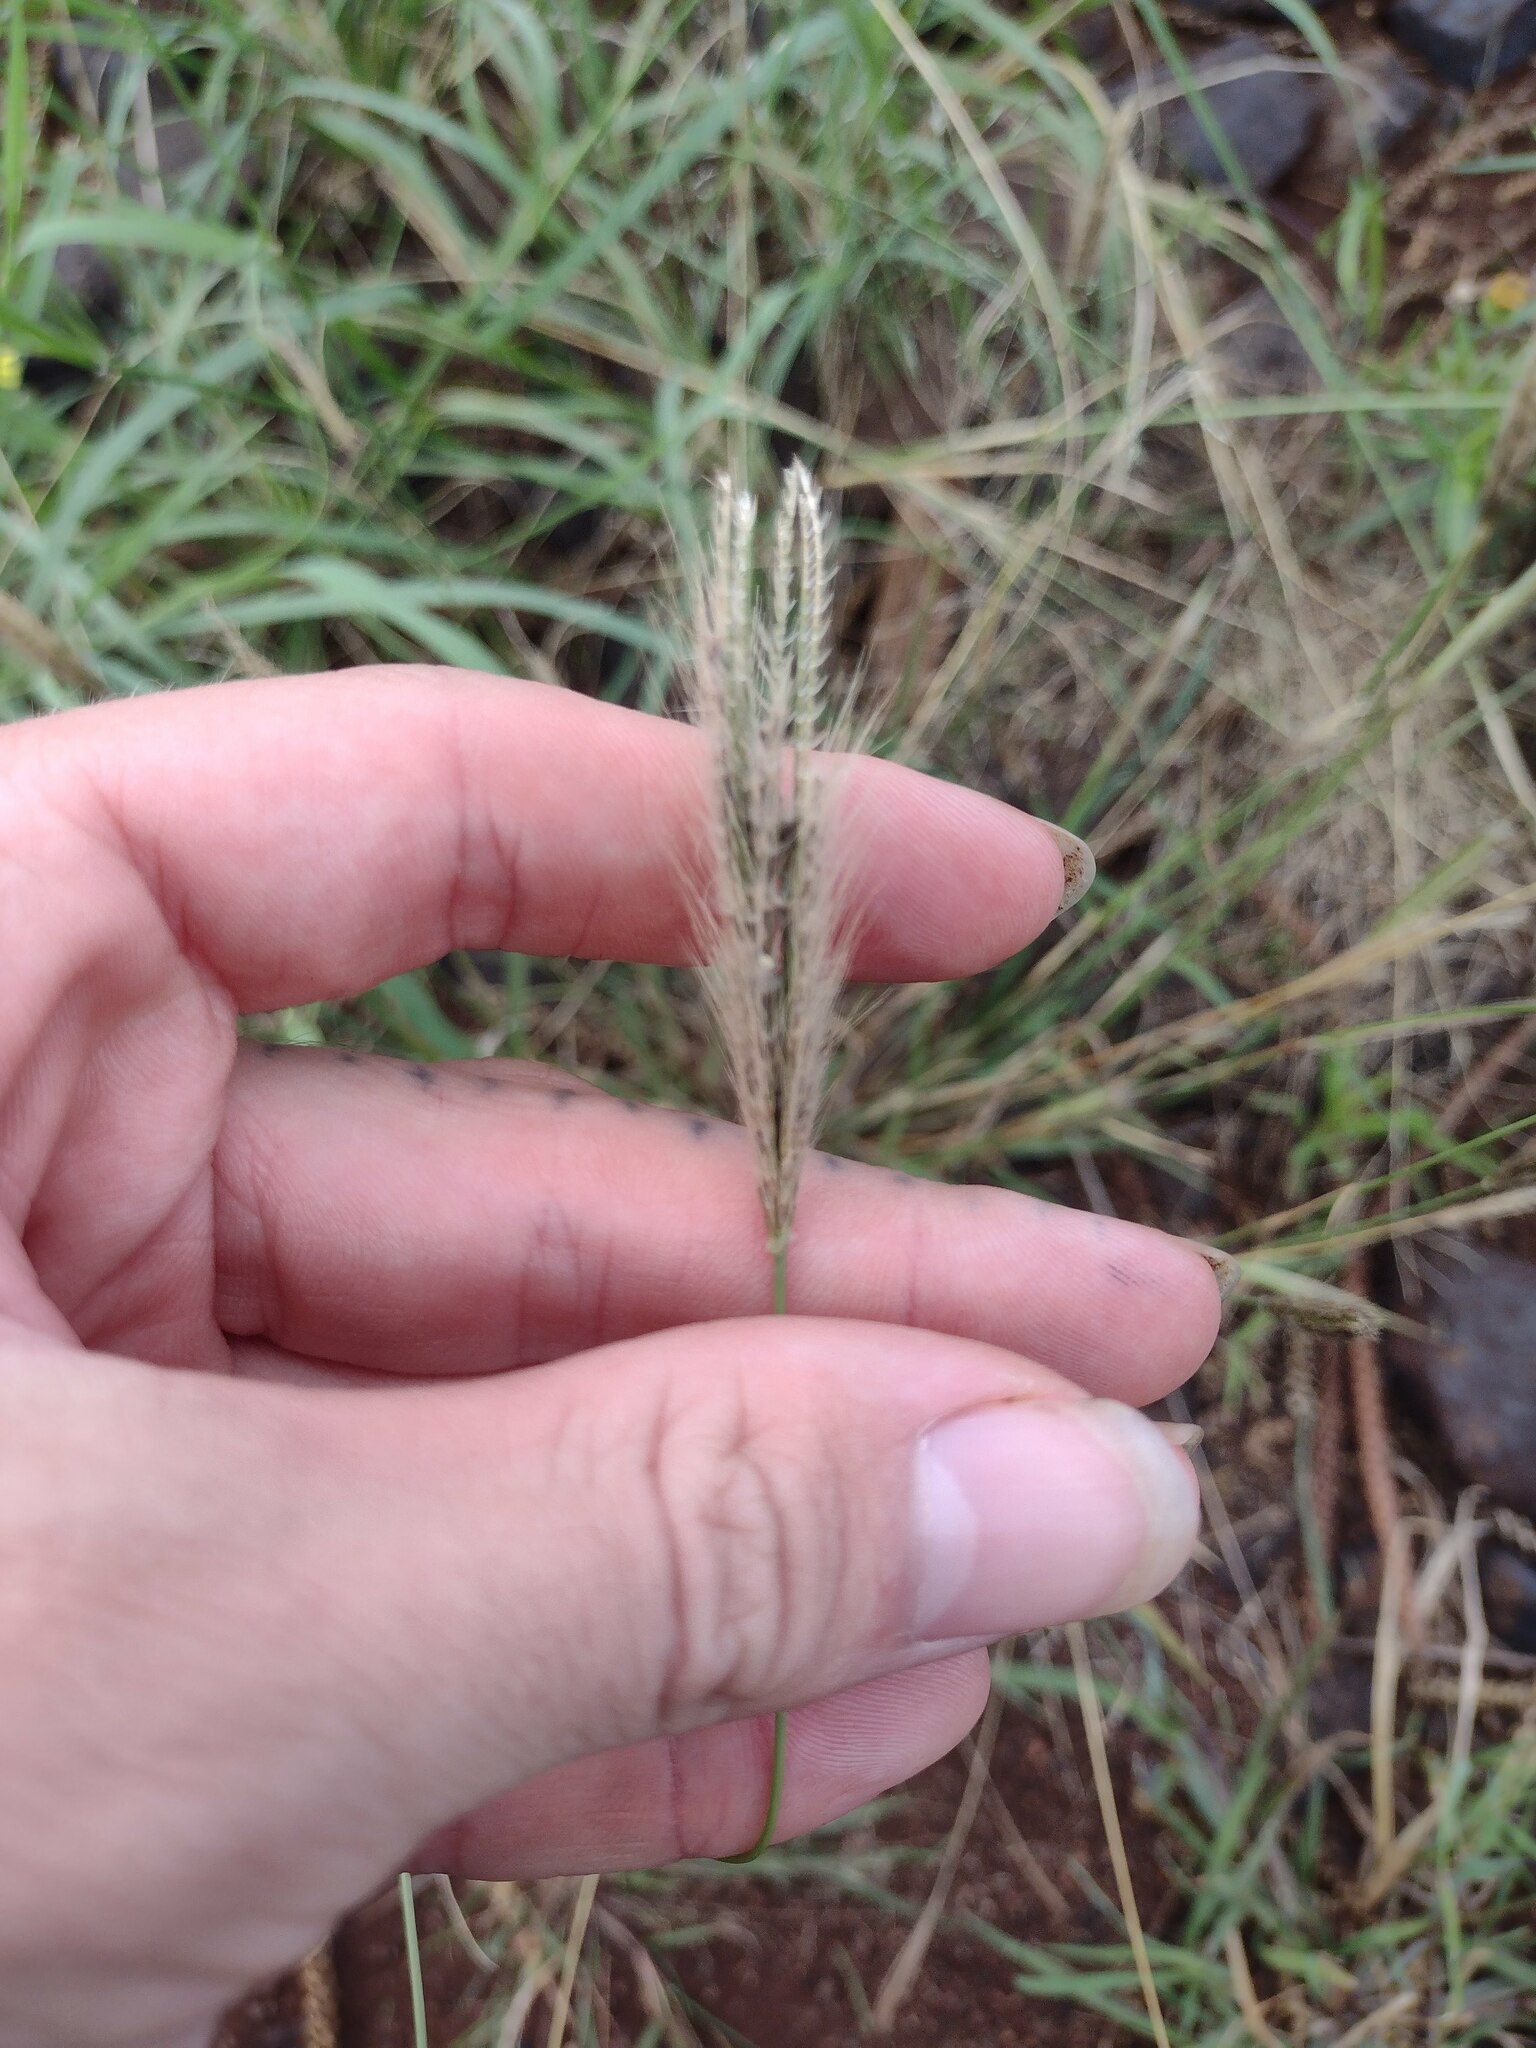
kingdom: Plantae
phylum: Tracheophyta
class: Liliopsida
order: Poales
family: Poaceae
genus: Chloris
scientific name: Chloris virgata
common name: Feathery rhodes-grass
